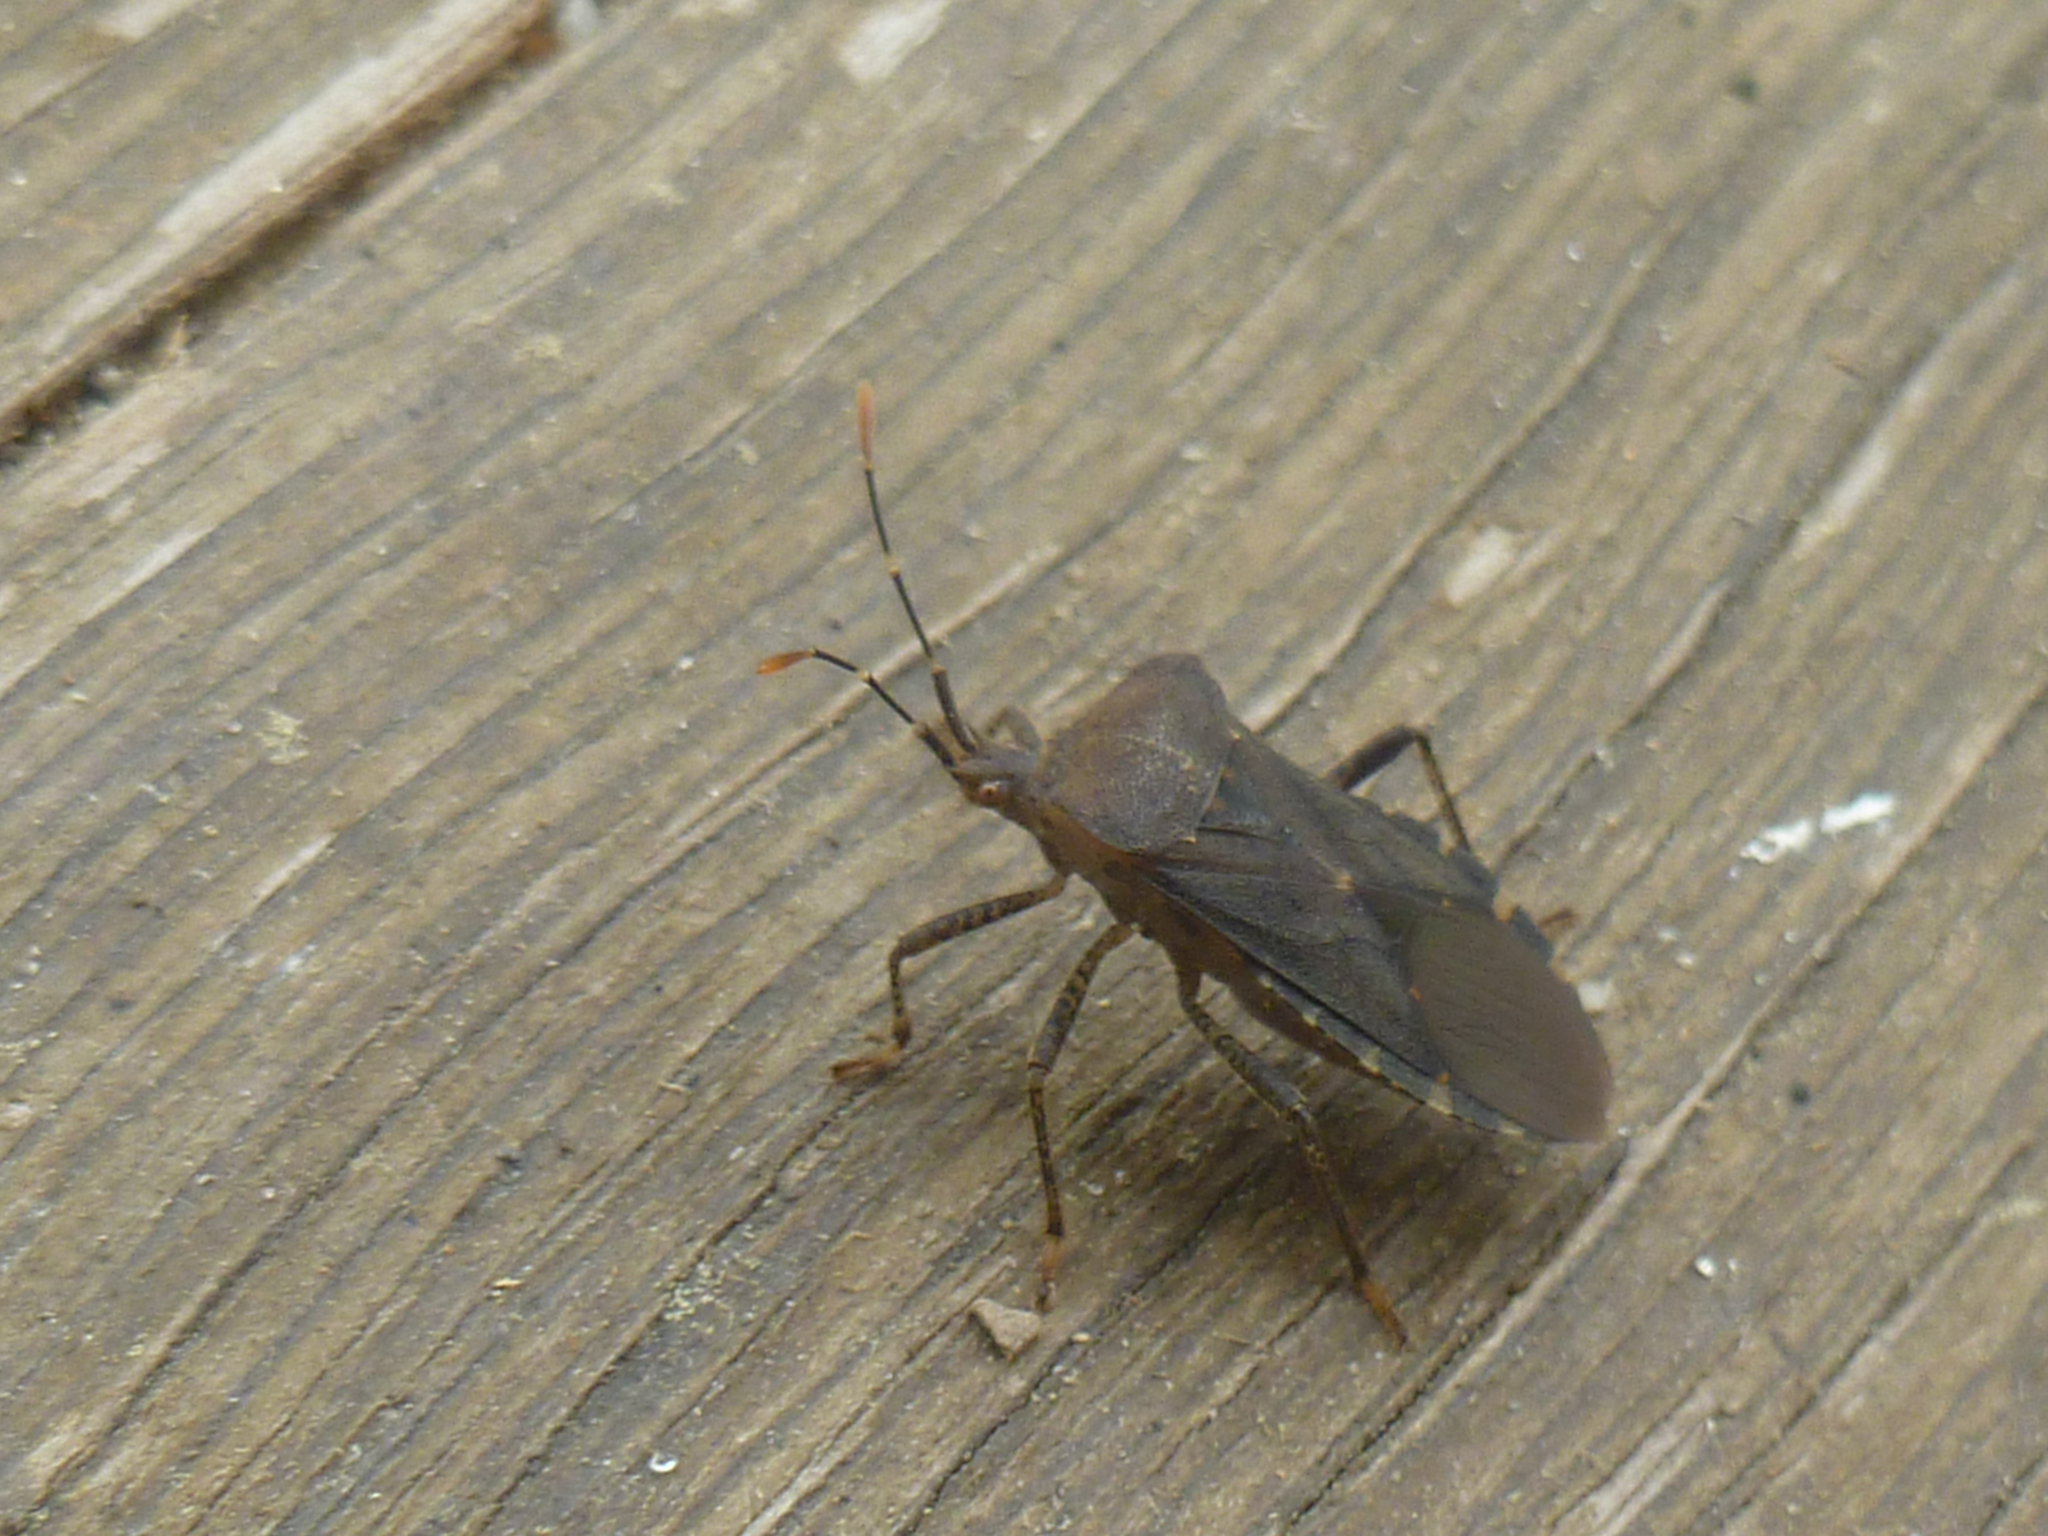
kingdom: Animalia
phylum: Arthropoda
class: Insecta
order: Hemiptera
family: Coreidae
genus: Anasa
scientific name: Anasa armigera
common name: Horned squash bug
